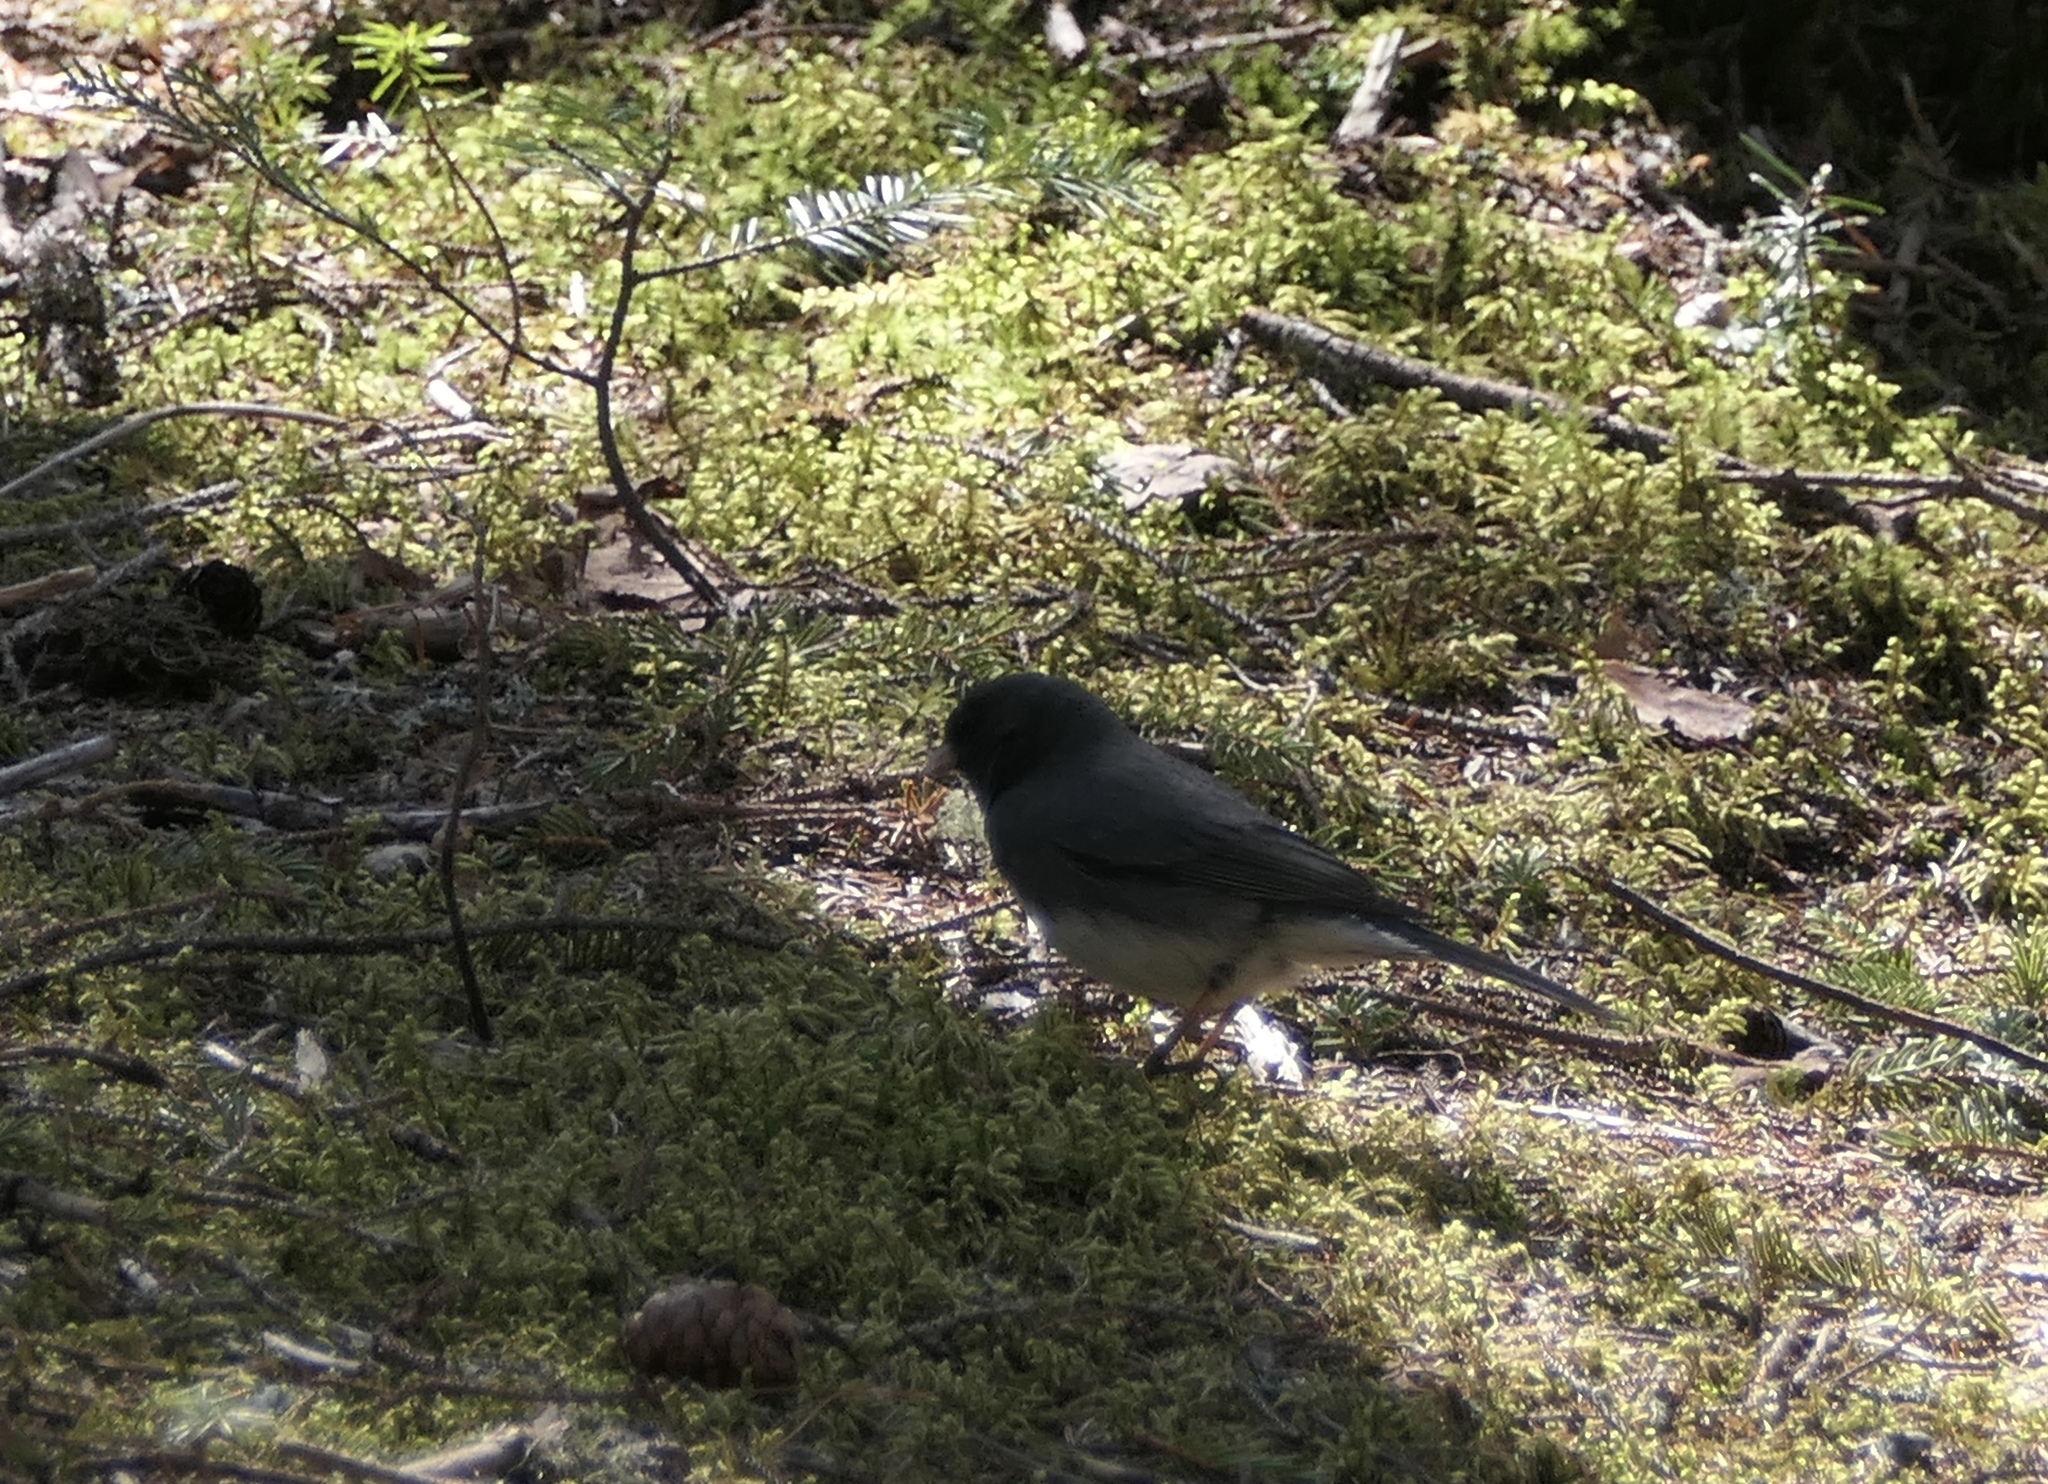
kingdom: Animalia
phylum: Chordata
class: Aves
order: Passeriformes
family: Passerellidae
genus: Junco
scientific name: Junco hyemalis
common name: Dark-eyed junco
